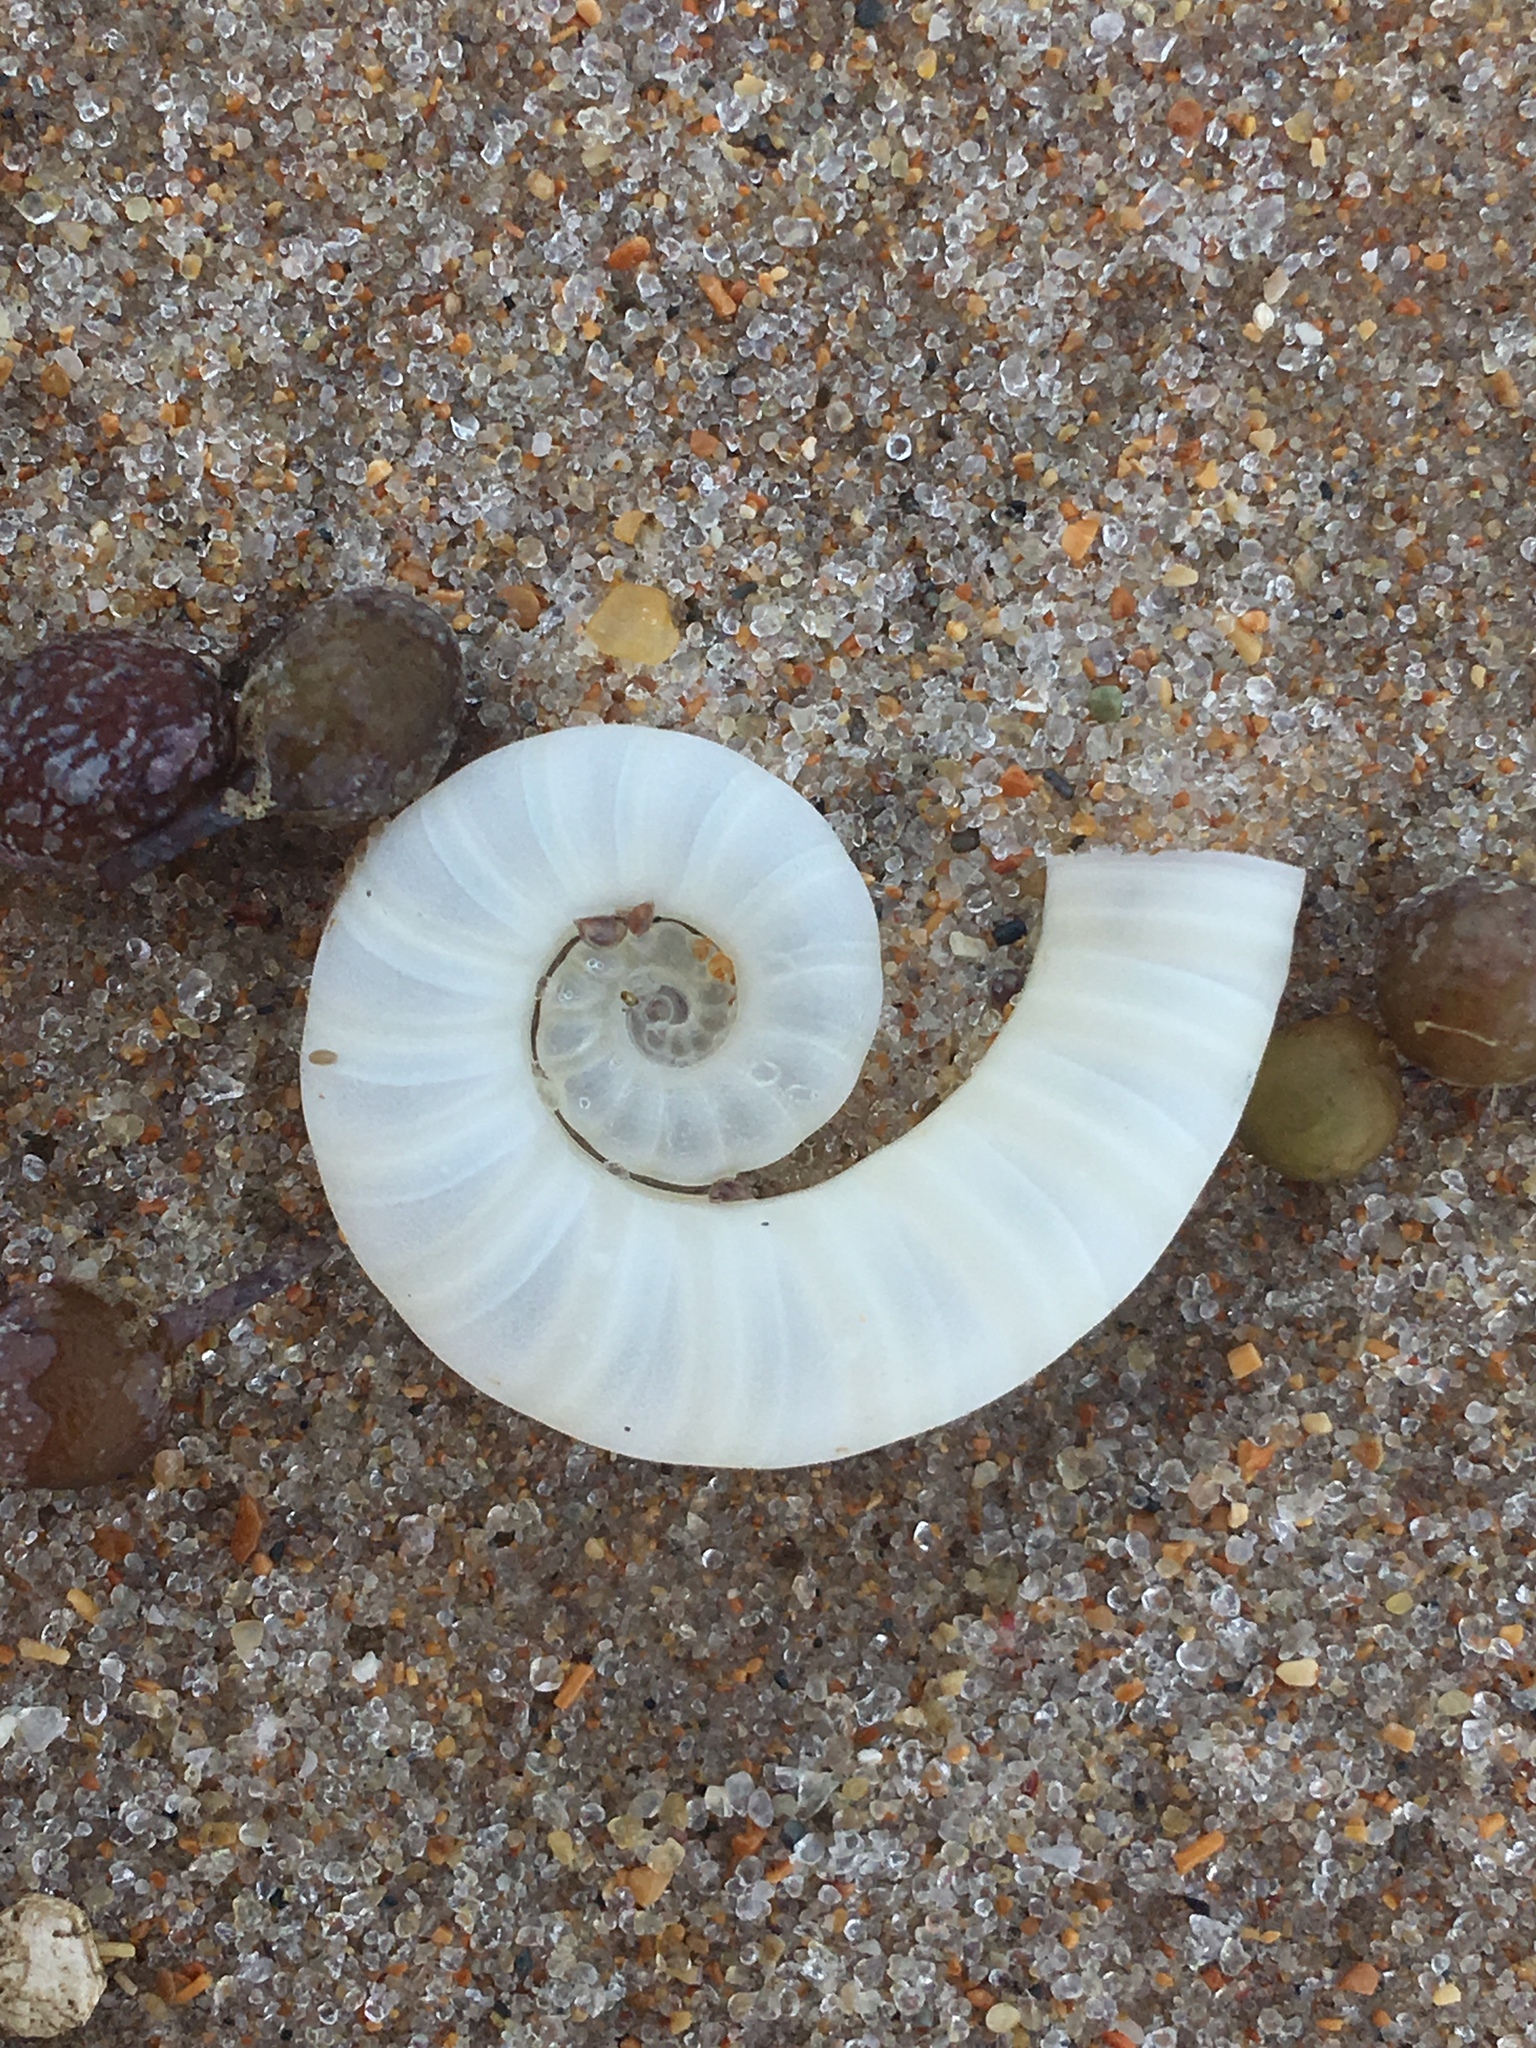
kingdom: Animalia
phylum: Mollusca
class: Cephalopoda
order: Spirulida
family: Spirulidae
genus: Spirula
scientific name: Spirula spirula
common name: Ram's horn squid
